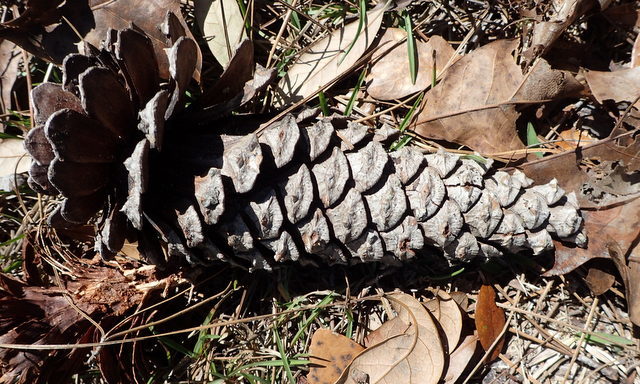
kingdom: Plantae
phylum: Tracheophyta
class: Pinopsida
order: Pinales
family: Pinaceae
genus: Pinus
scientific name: Pinus palustris
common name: Longleaf pine
